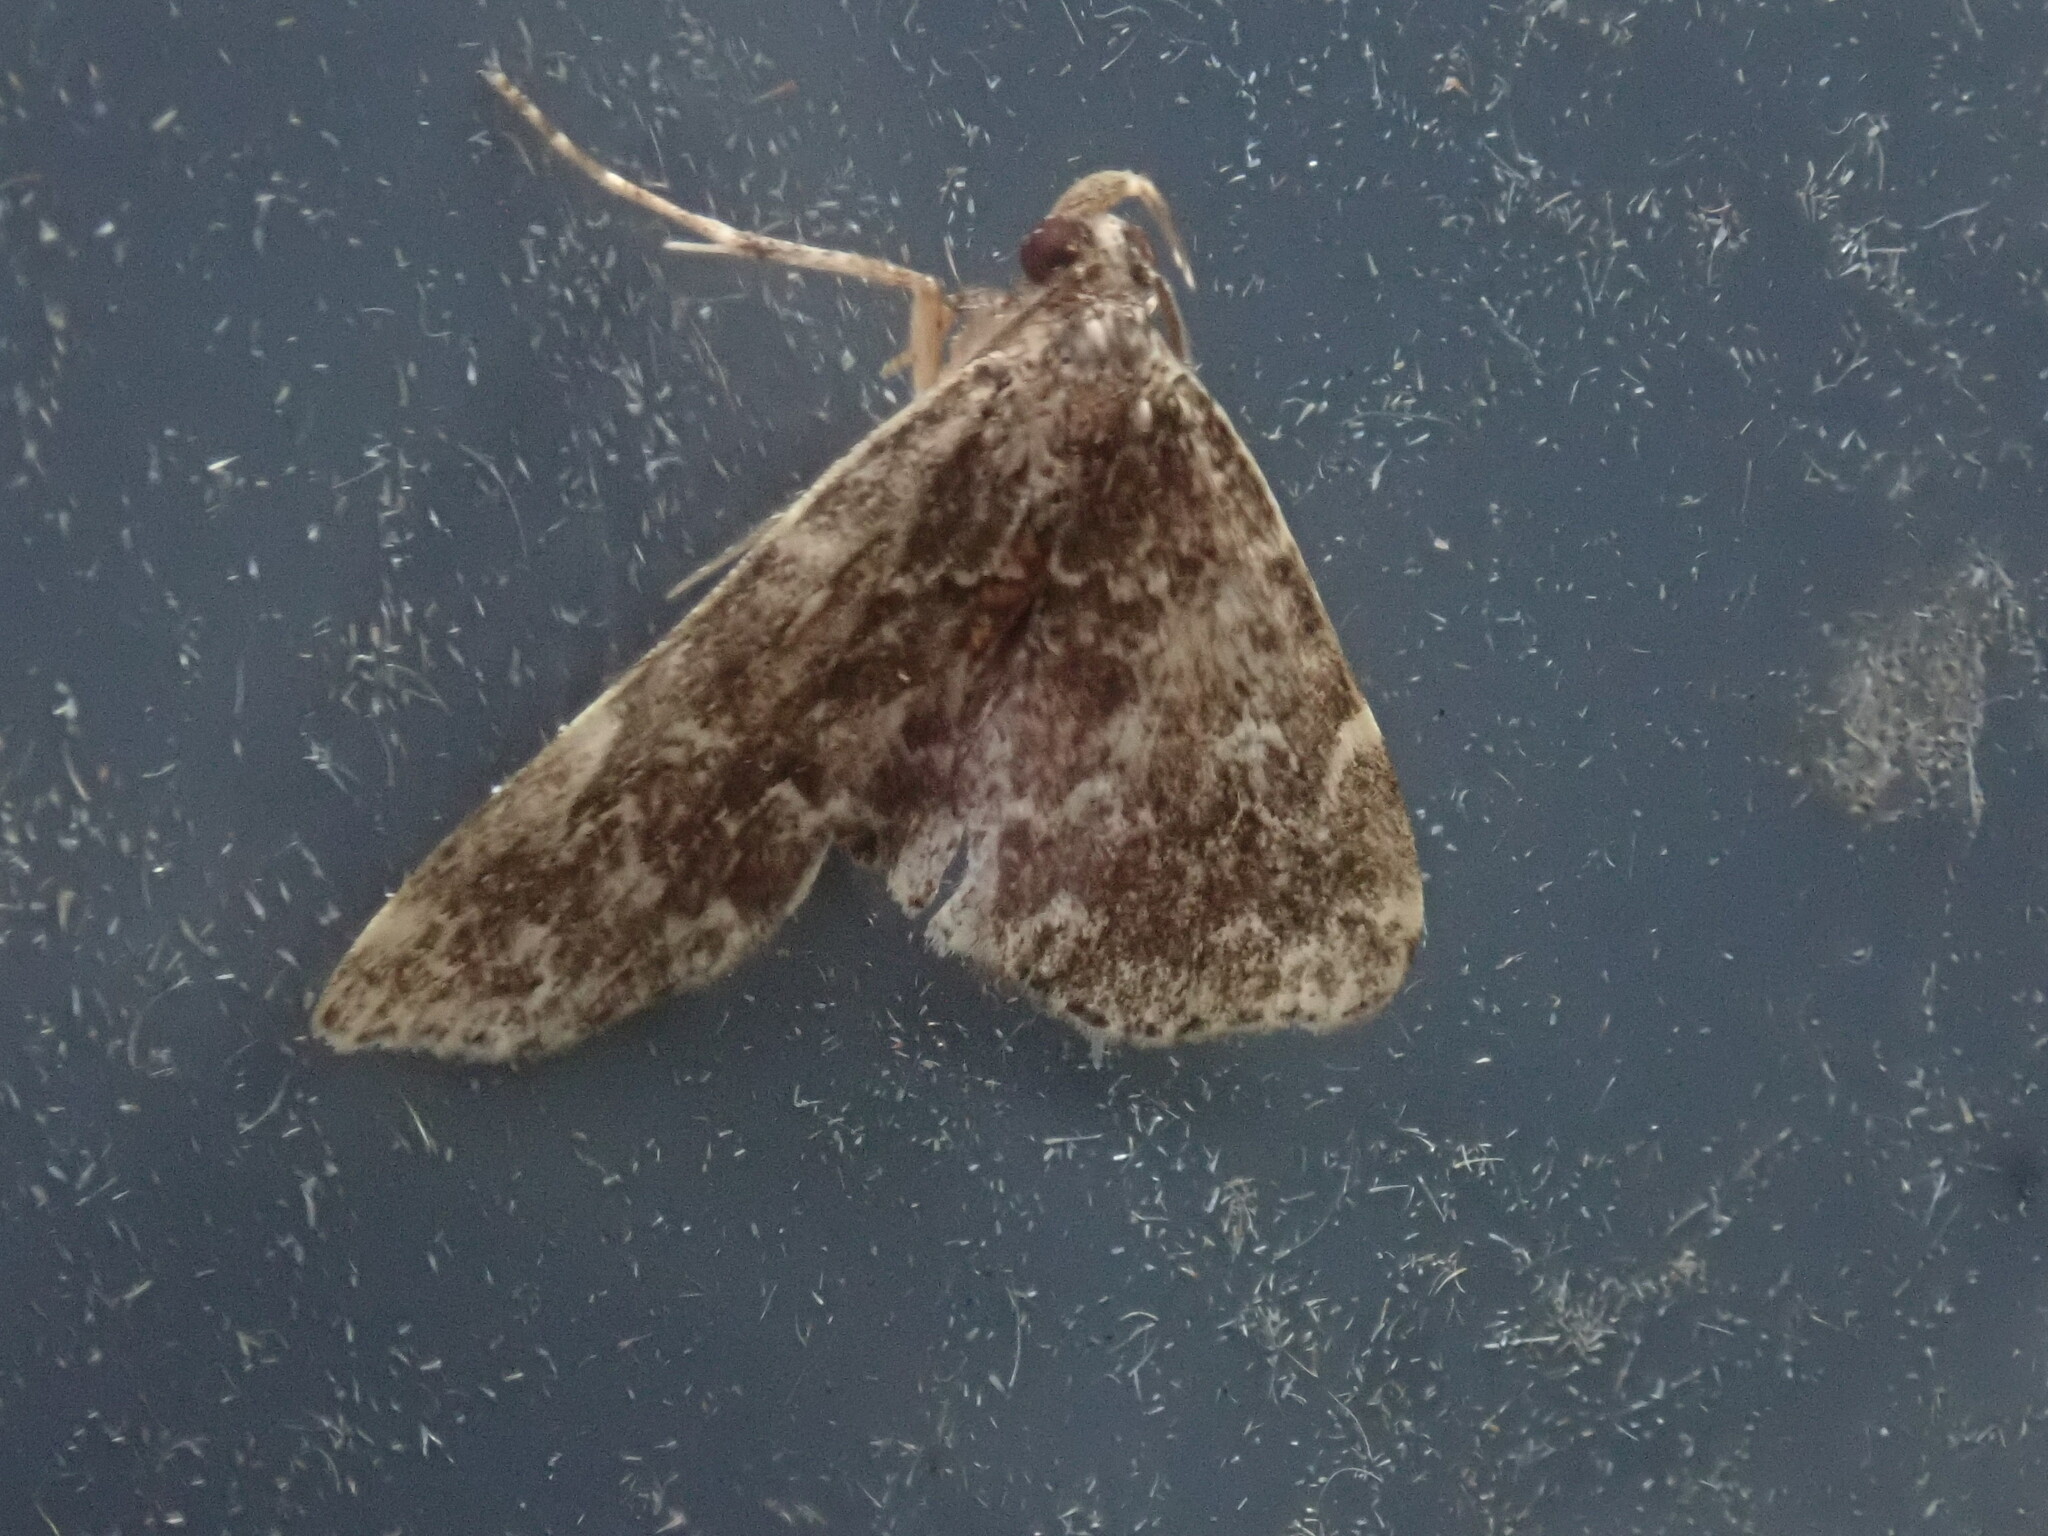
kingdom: Animalia
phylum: Arthropoda
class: Insecta
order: Lepidoptera
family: Erebidae
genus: Idia
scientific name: Idia scobialis
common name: Smoky idia moth
